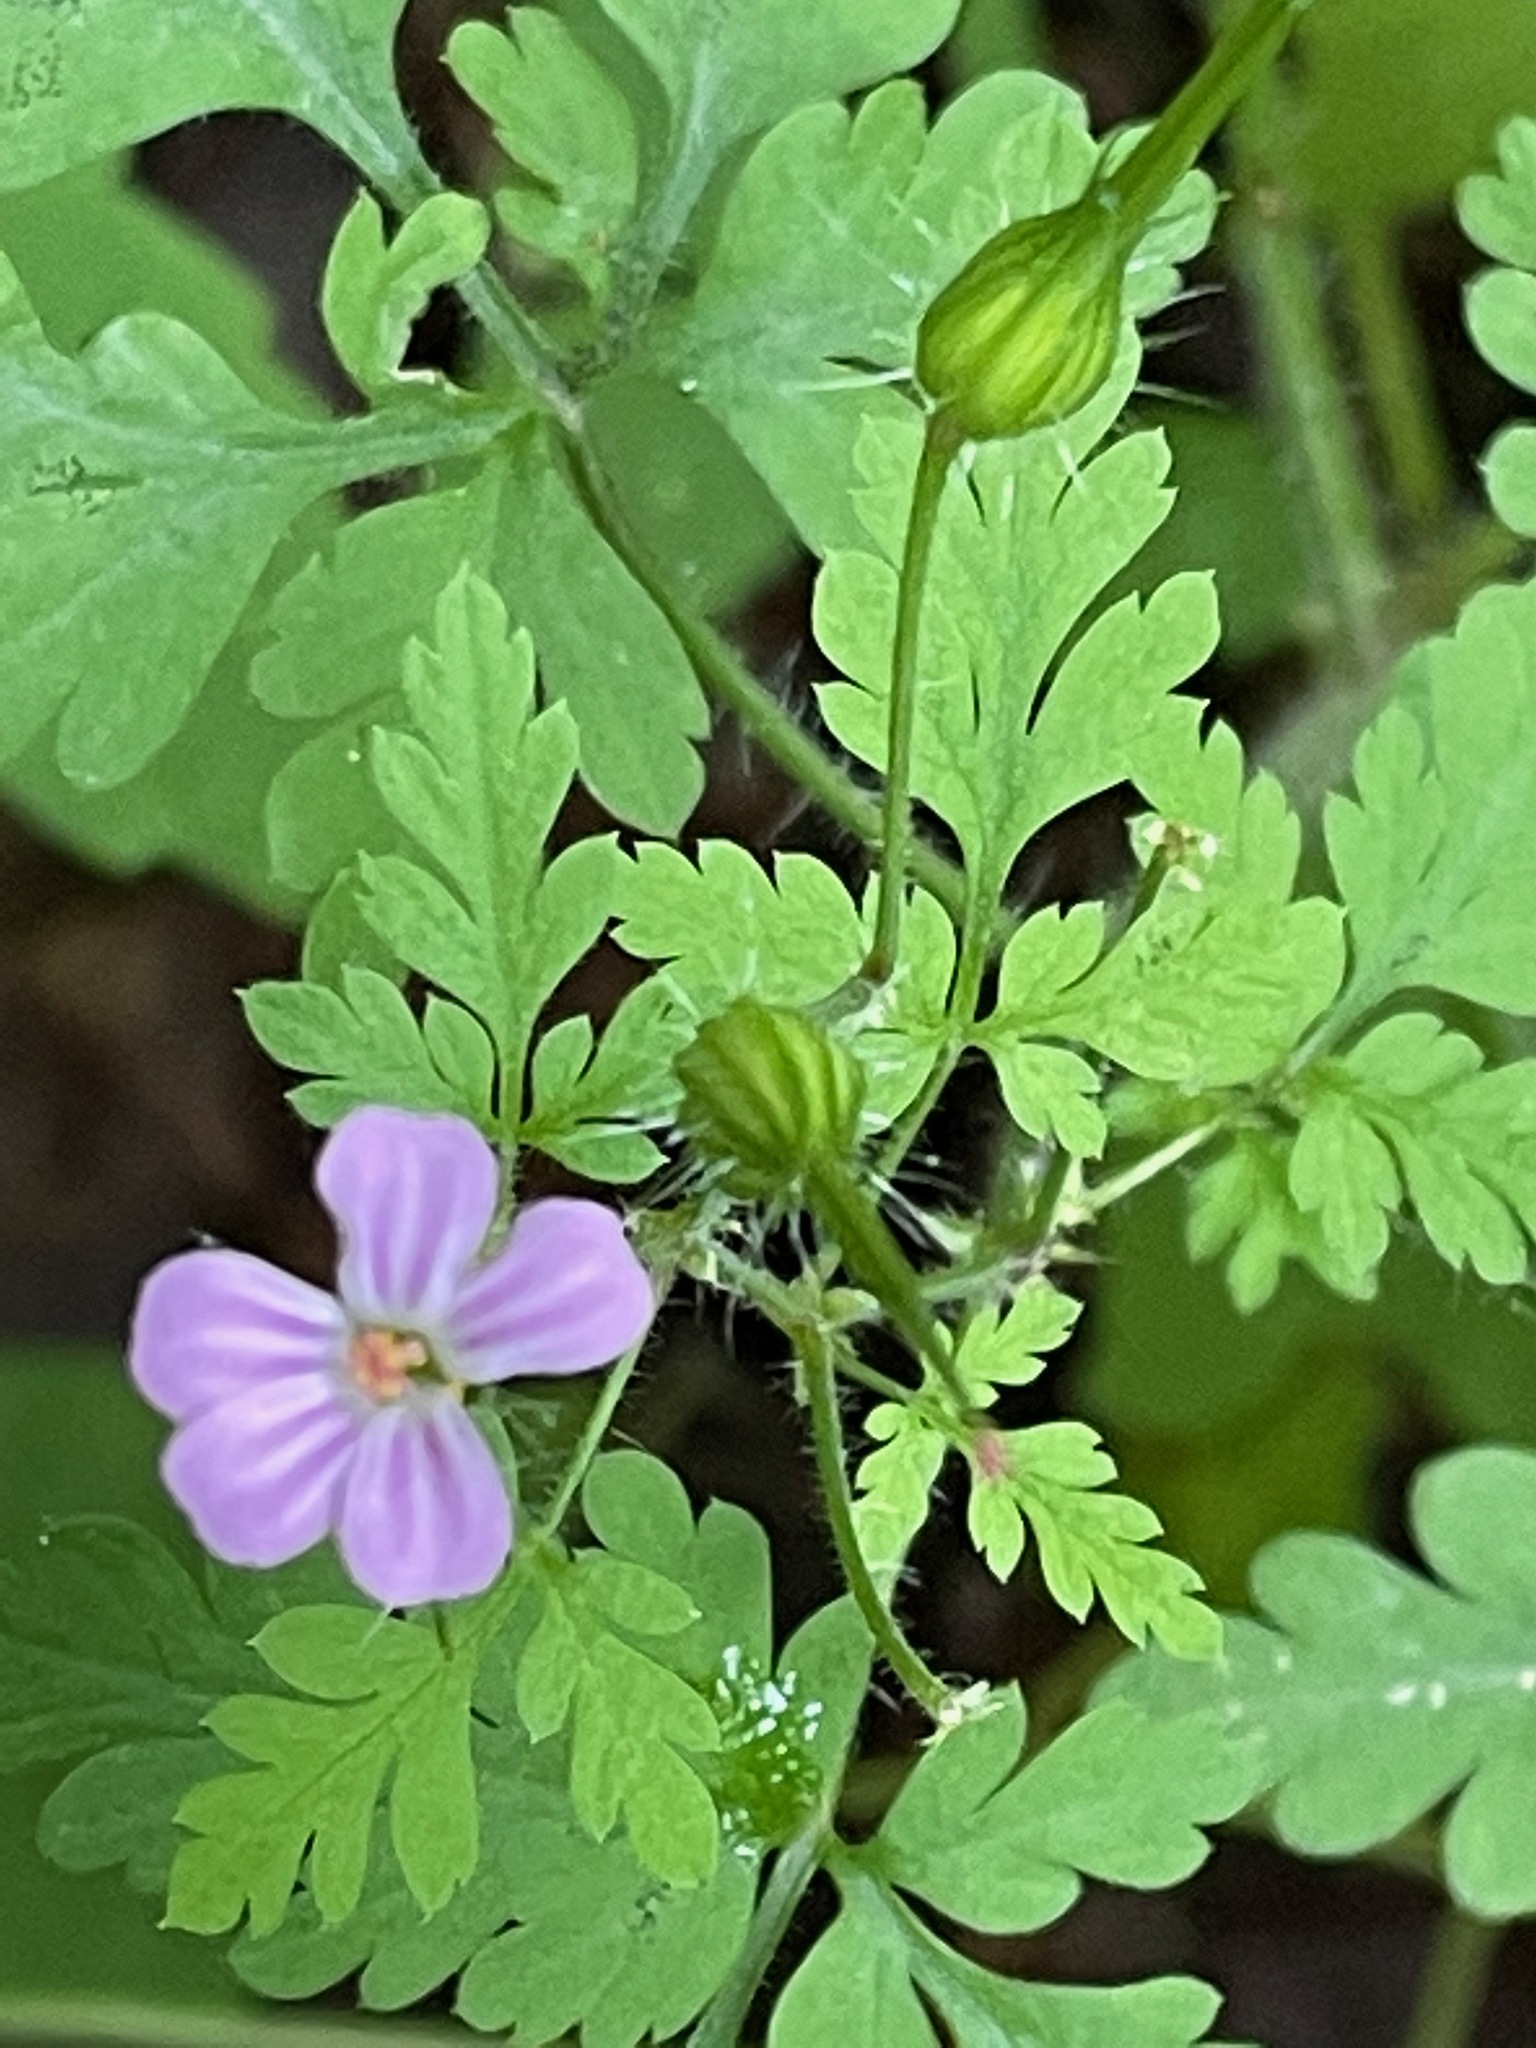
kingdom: Plantae
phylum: Tracheophyta
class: Magnoliopsida
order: Geraniales
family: Geraniaceae
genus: Geranium
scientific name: Geranium robertianum
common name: Herb-robert
